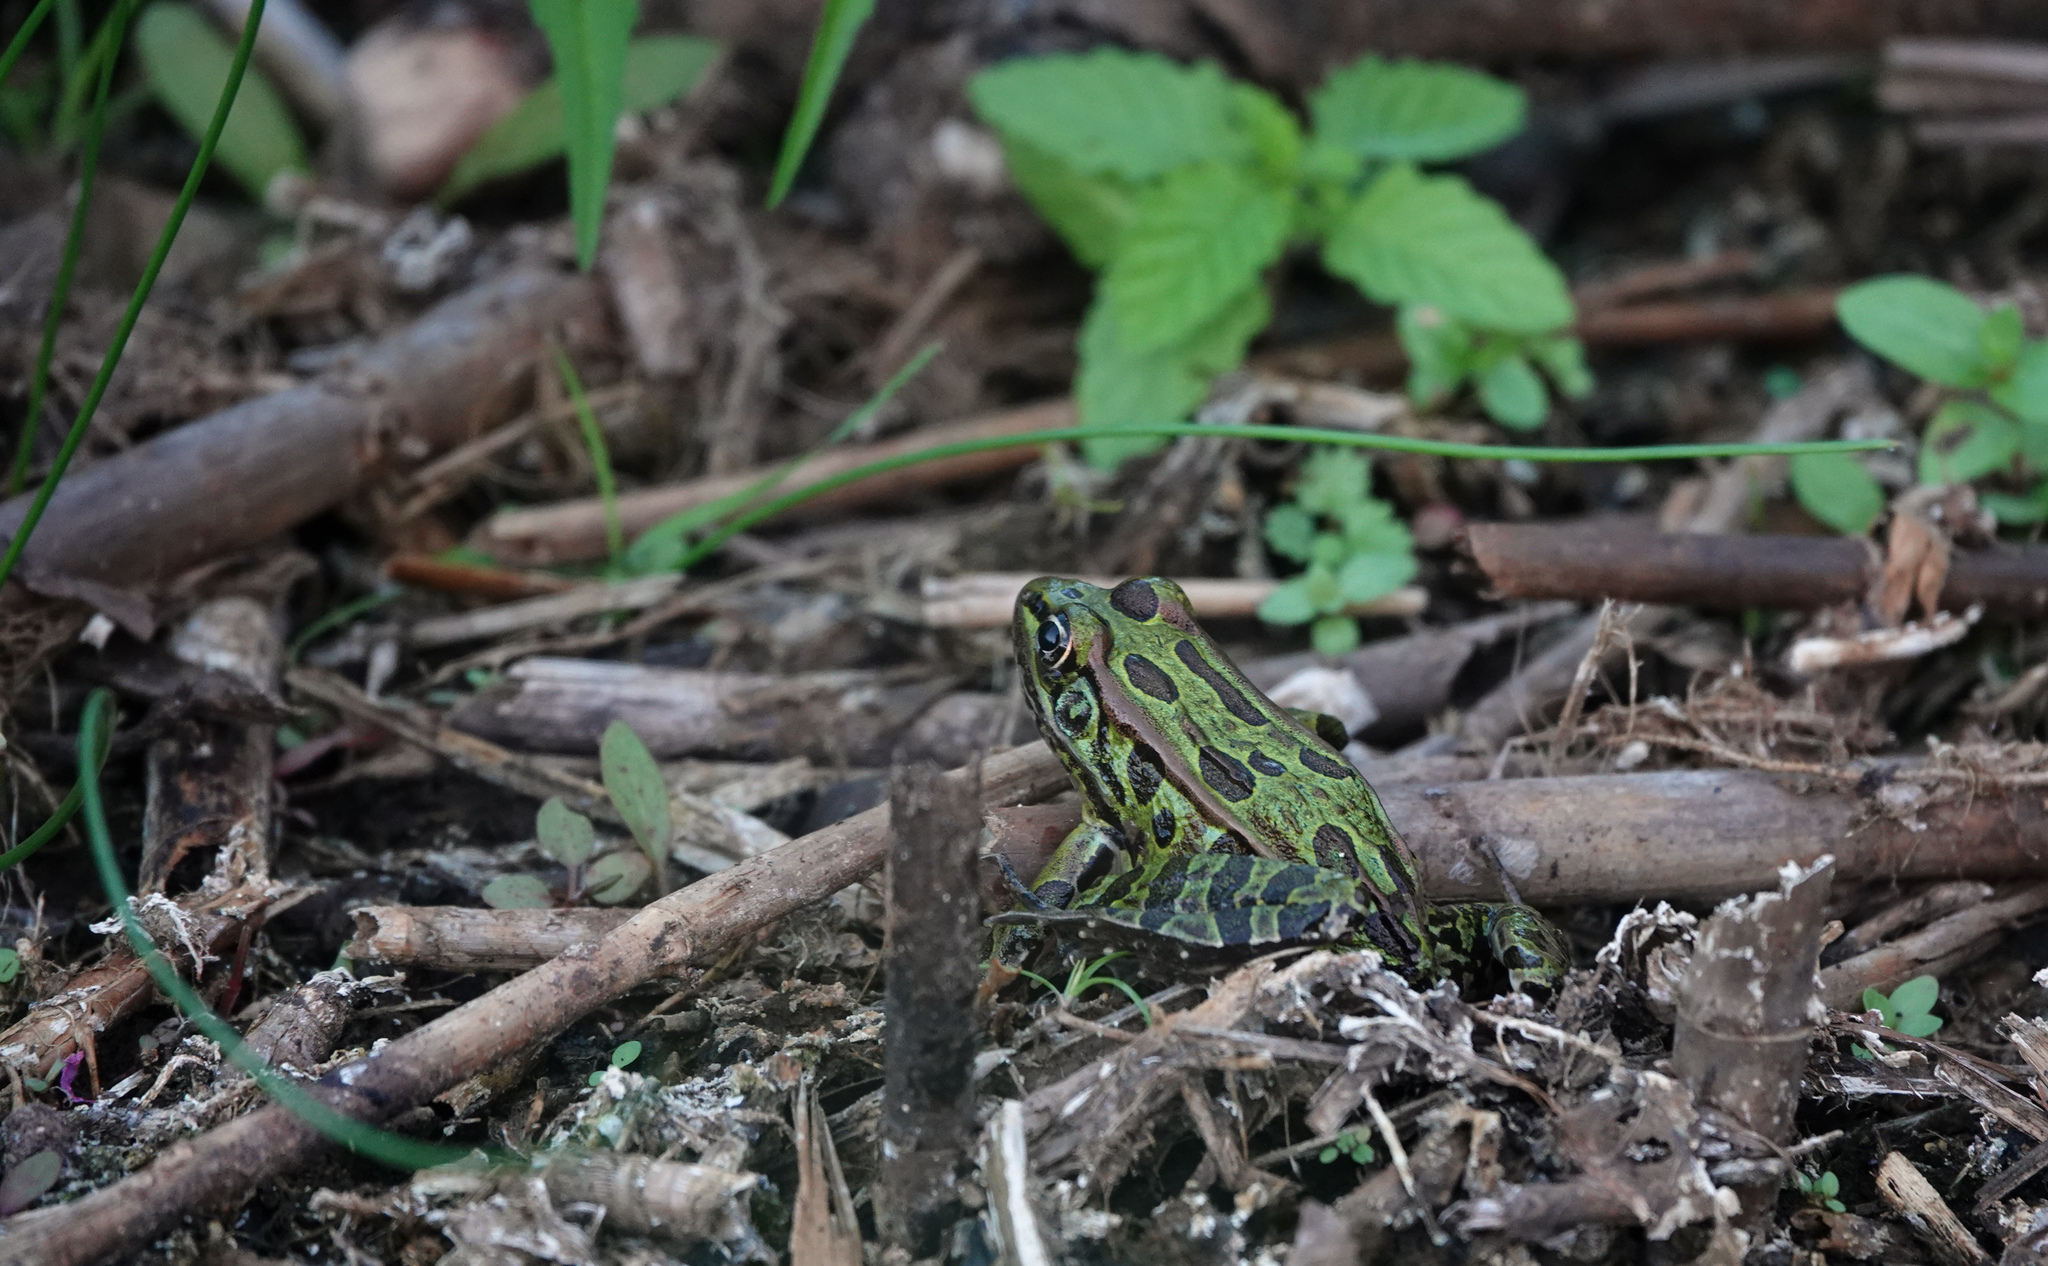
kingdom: Animalia
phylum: Chordata
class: Amphibia
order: Anura
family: Ranidae
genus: Lithobates
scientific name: Lithobates pipiens
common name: Northern leopard frog
